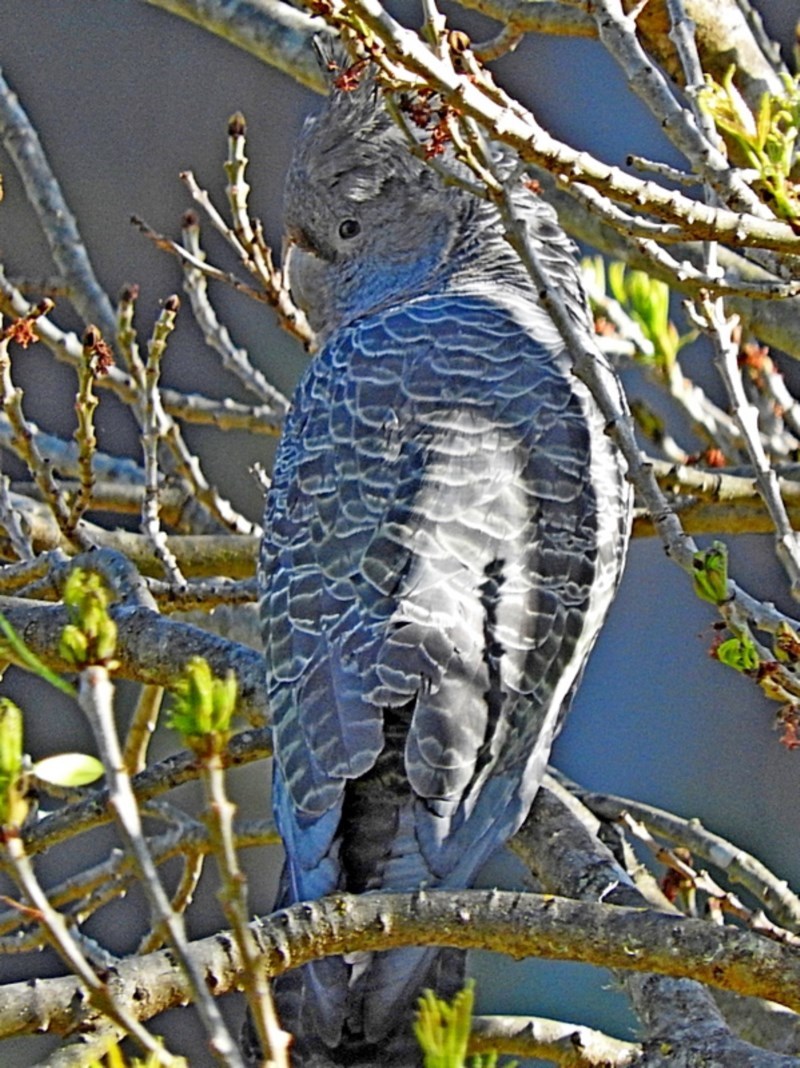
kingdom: Animalia
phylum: Chordata
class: Aves
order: Psittaciformes
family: Psittacidae
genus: Callocephalon
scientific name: Callocephalon fimbriatum
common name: Gang-gang cockatoo
